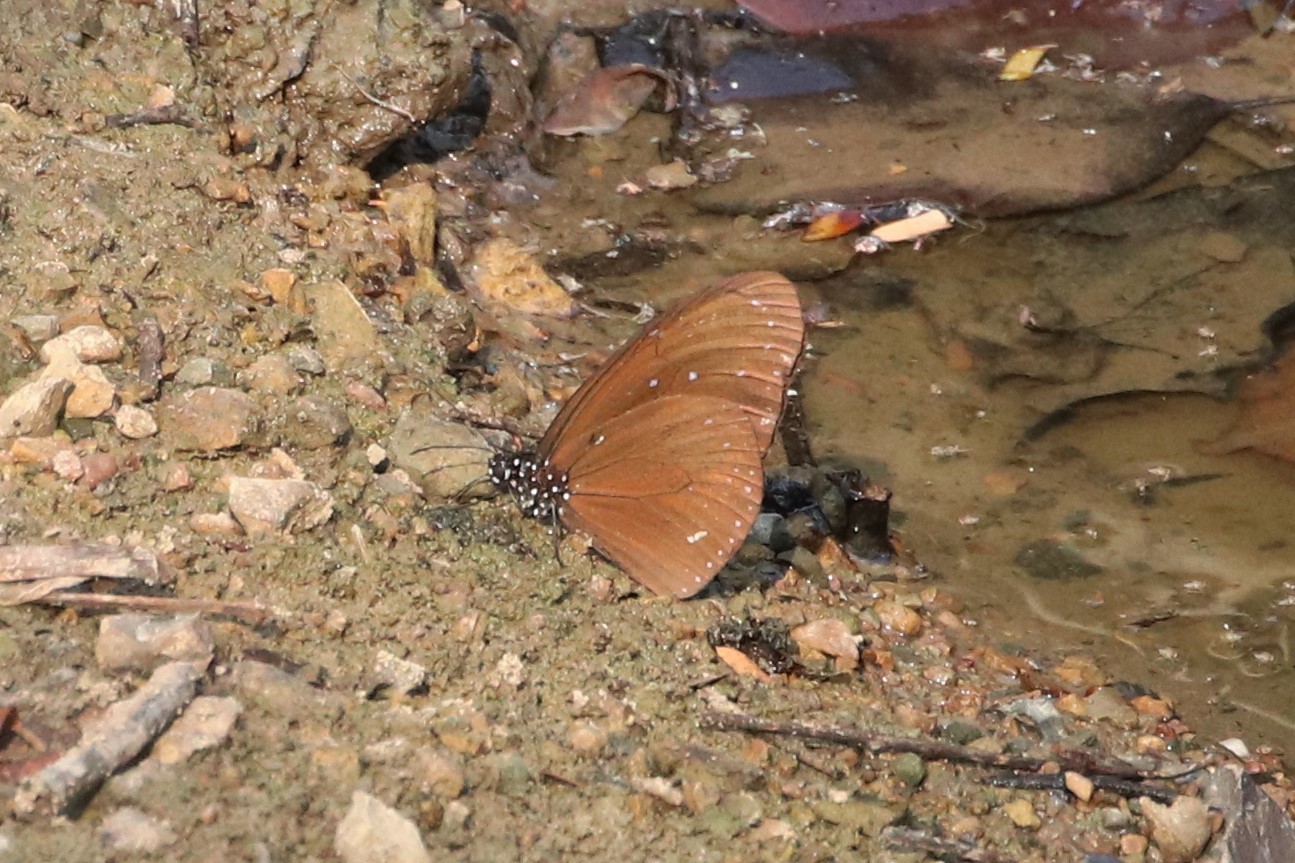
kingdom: Animalia
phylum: Arthropoda
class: Insecta
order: Lepidoptera
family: Nymphalidae
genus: Euploea
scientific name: Euploea mulciber
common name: Striped blue crow butterfly
